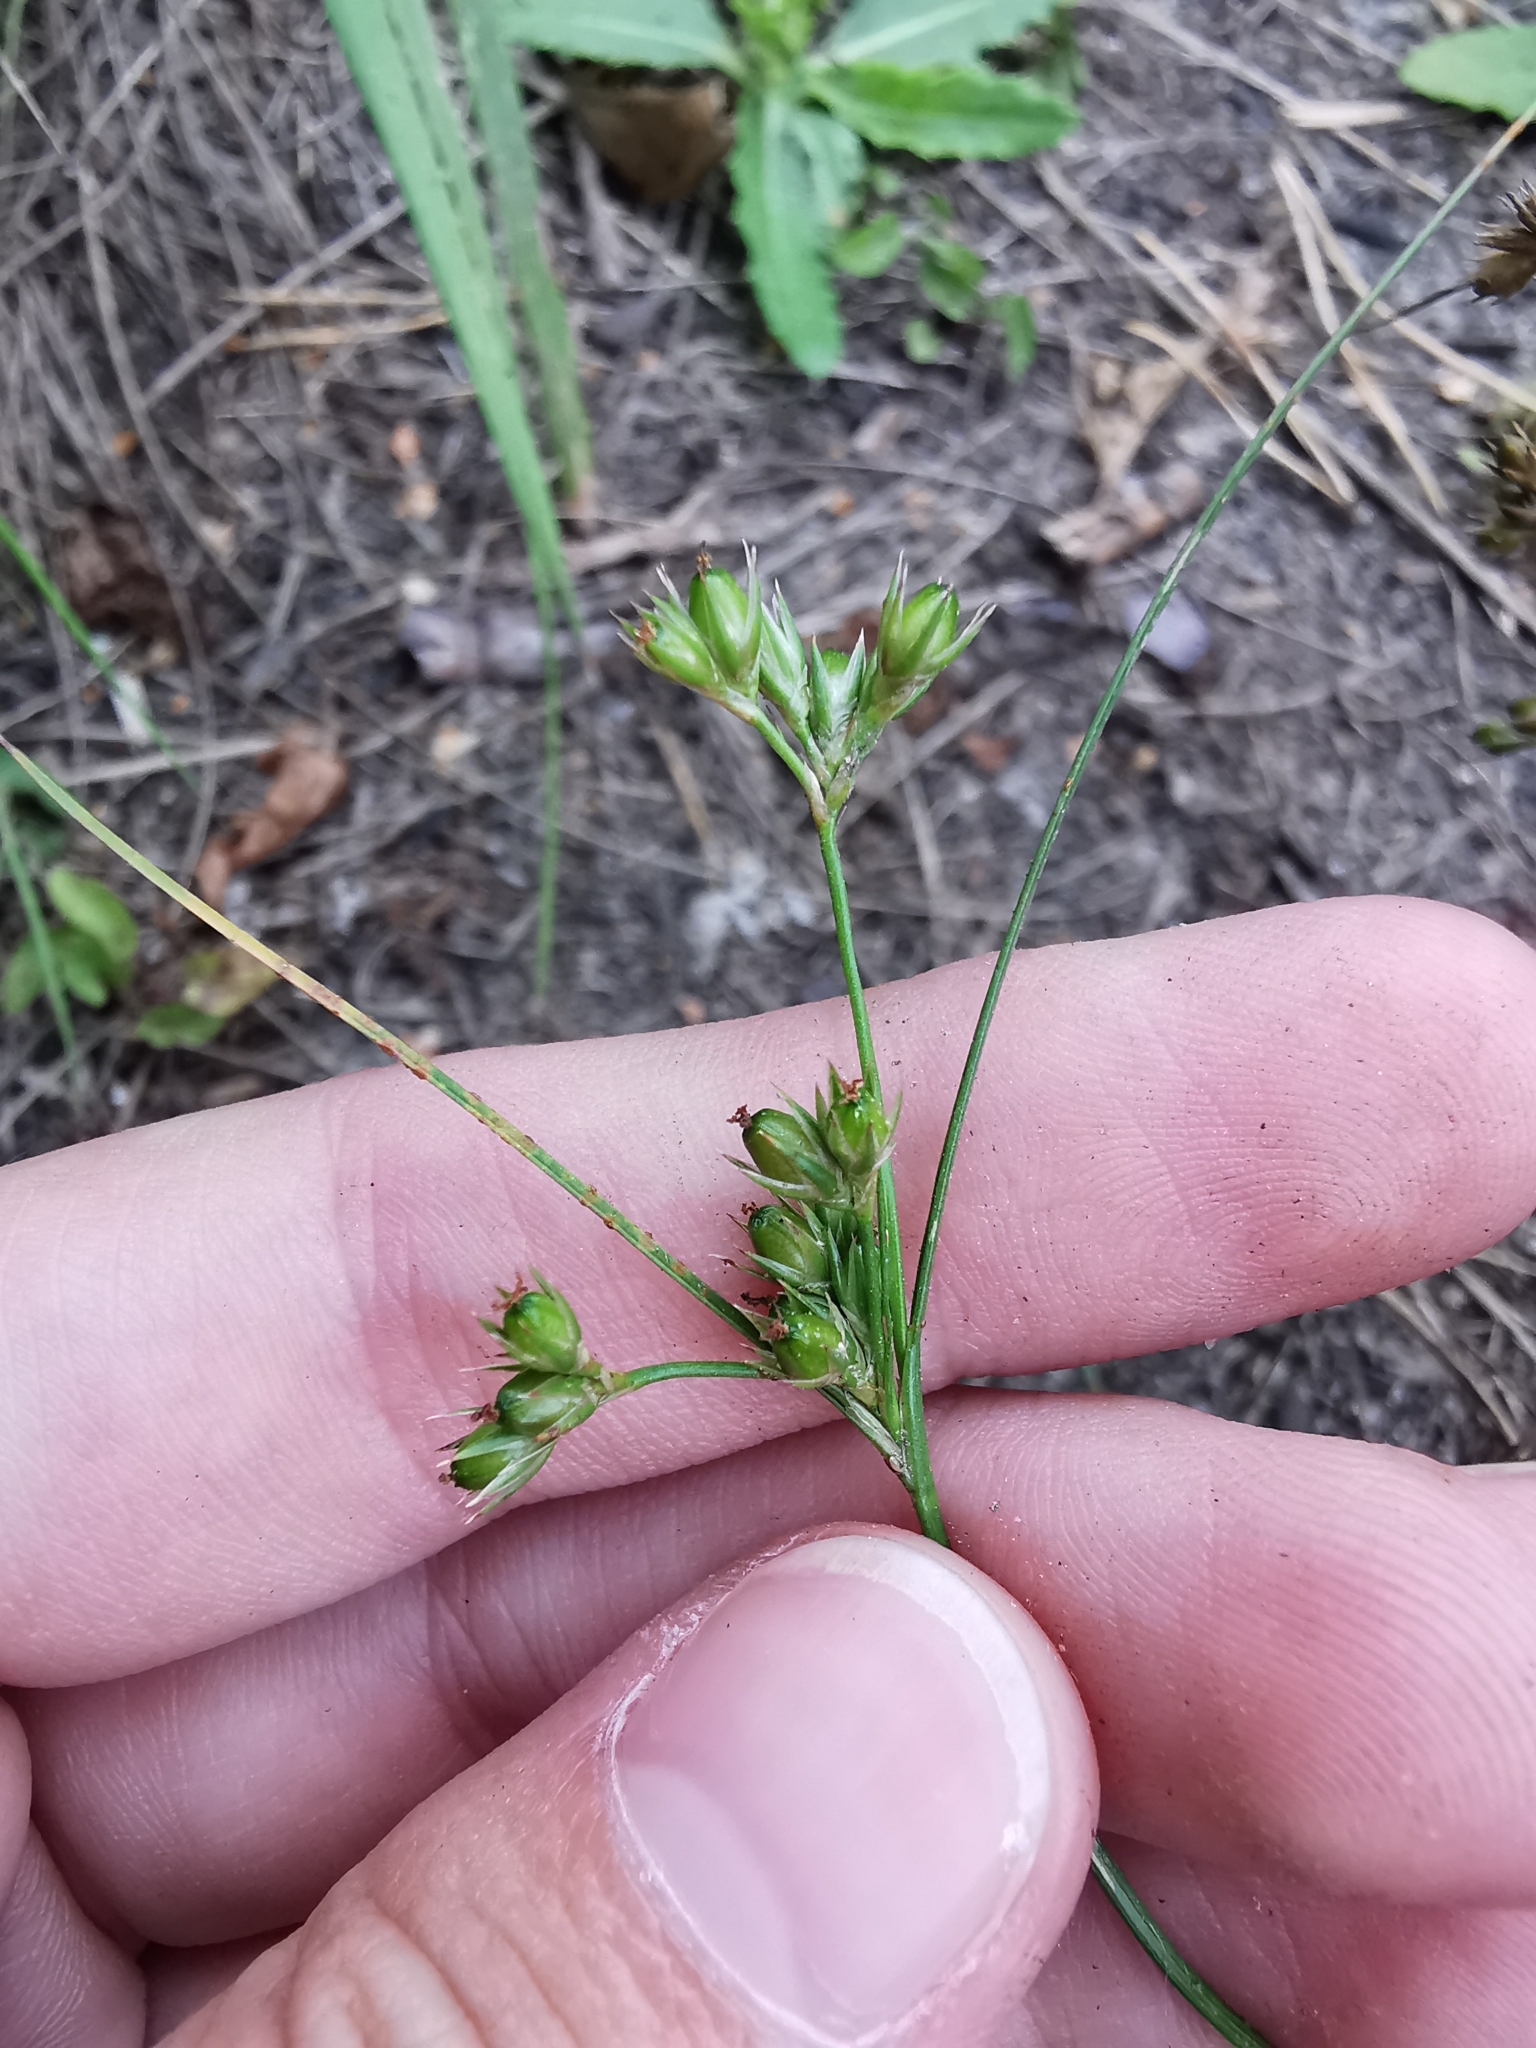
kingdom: Plantae
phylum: Tracheophyta
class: Liliopsida
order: Poales
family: Juncaceae
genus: Juncus
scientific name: Juncus tenuis
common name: Slender rush
